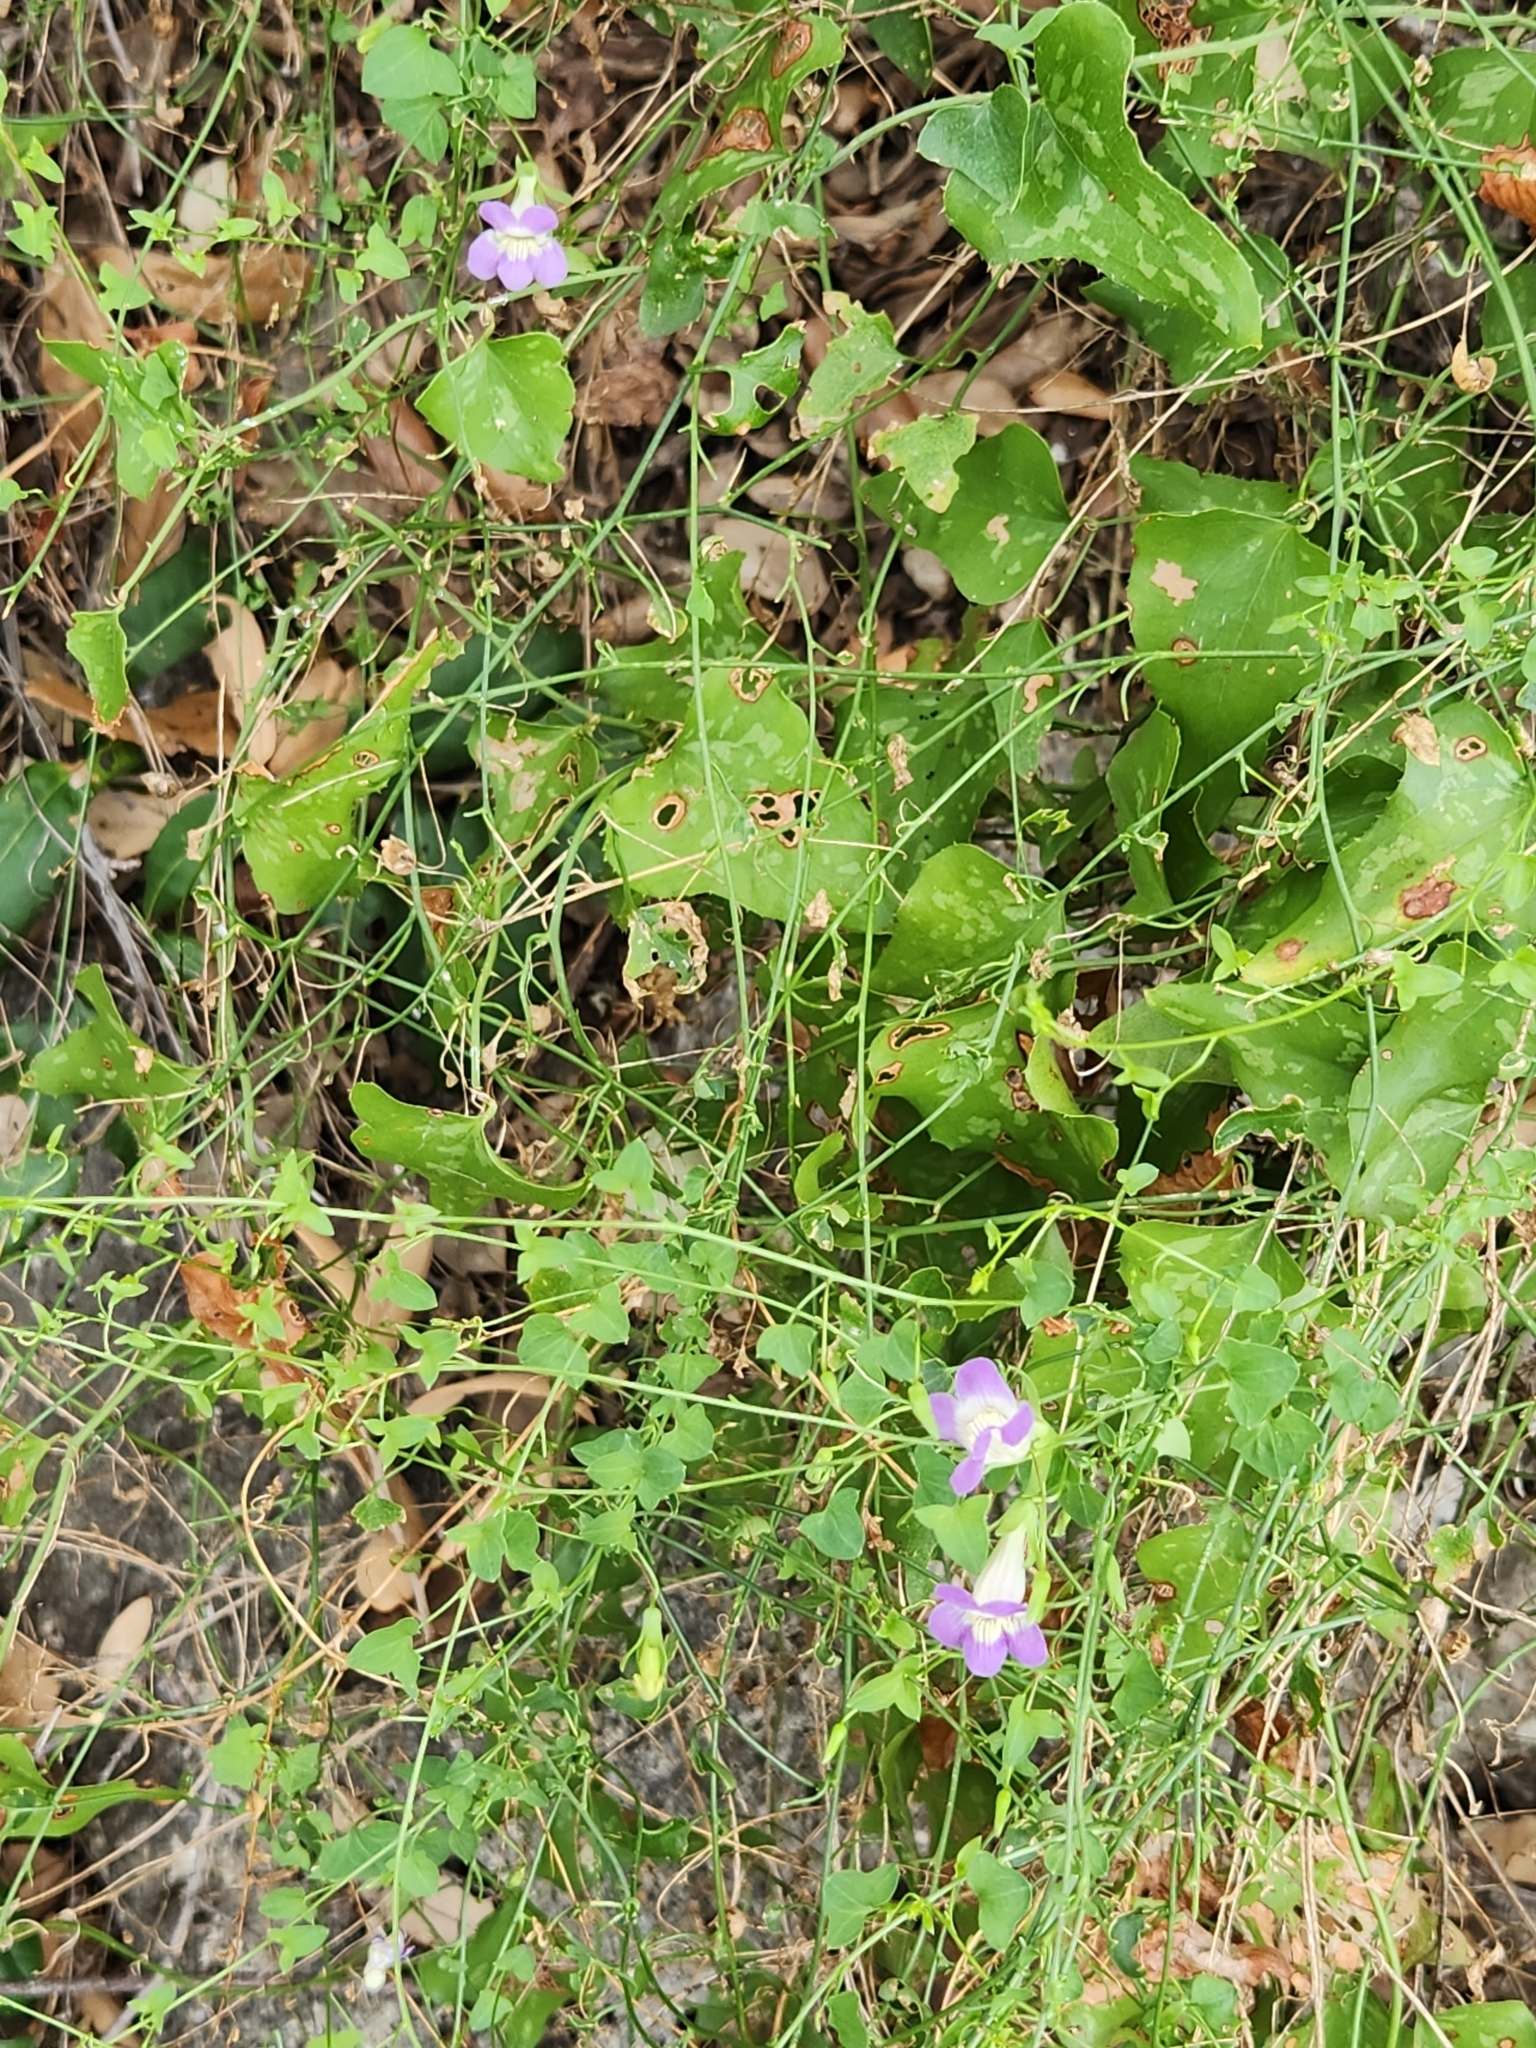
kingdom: Plantae
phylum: Tracheophyta
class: Magnoliopsida
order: Lamiales
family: Plantaginaceae
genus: Maurandella
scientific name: Maurandella antirrhiniflora
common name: Violet twining-snapdragon
